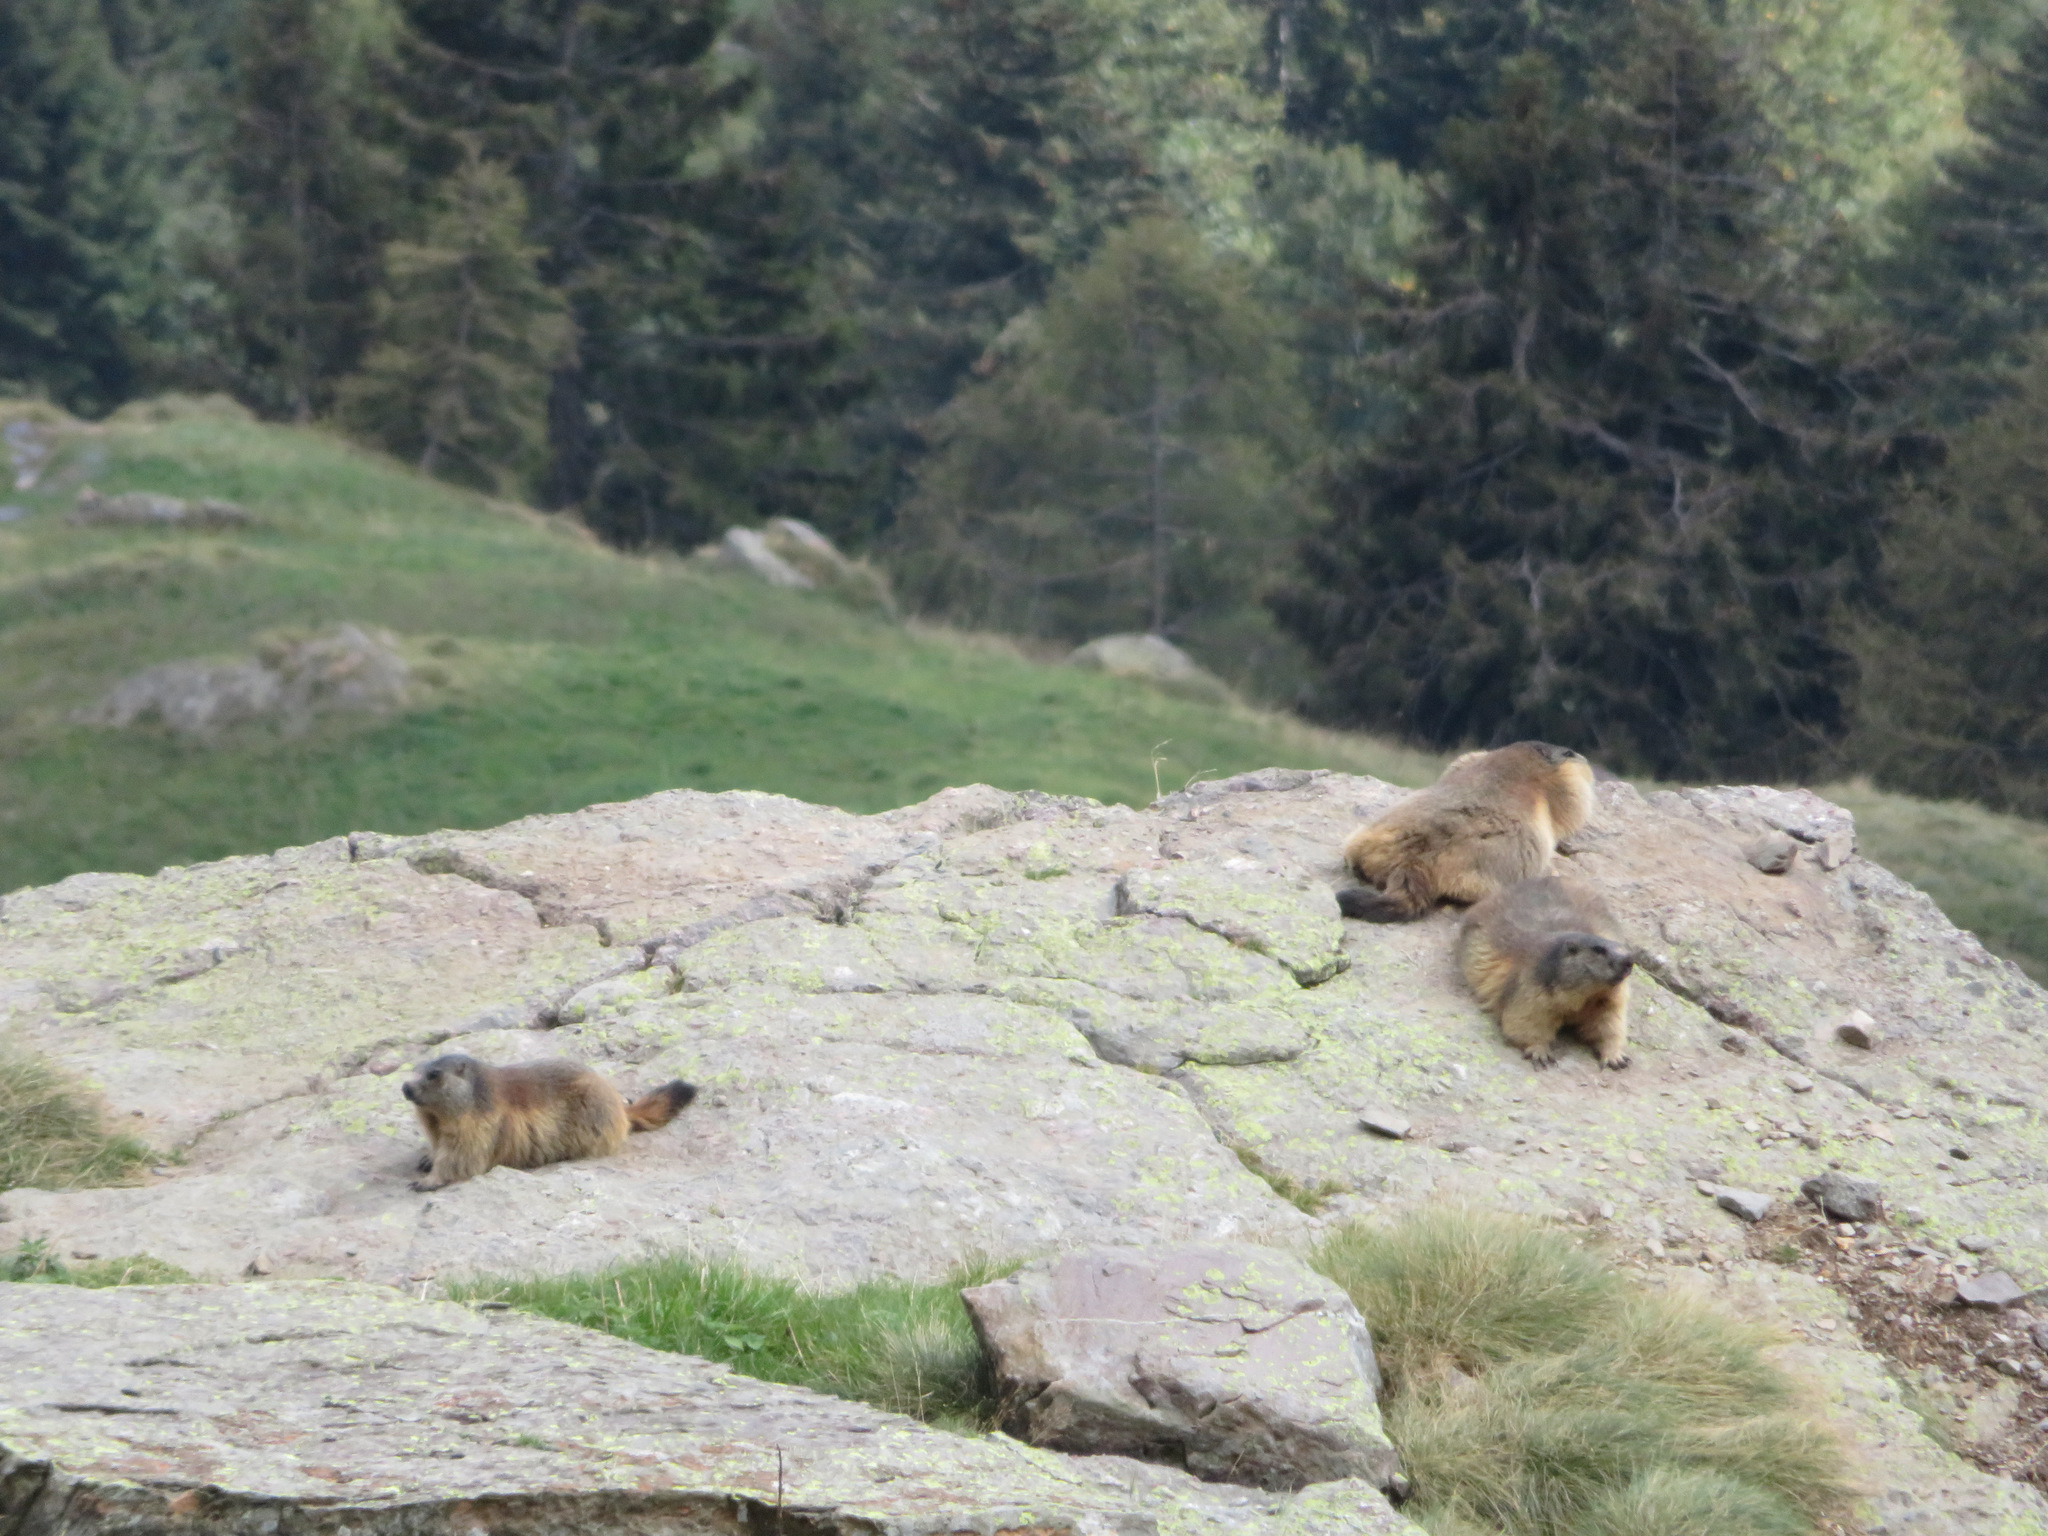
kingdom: Animalia
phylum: Chordata
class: Mammalia
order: Rodentia
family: Sciuridae
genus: Marmota
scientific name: Marmota marmota
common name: Alpine marmot
